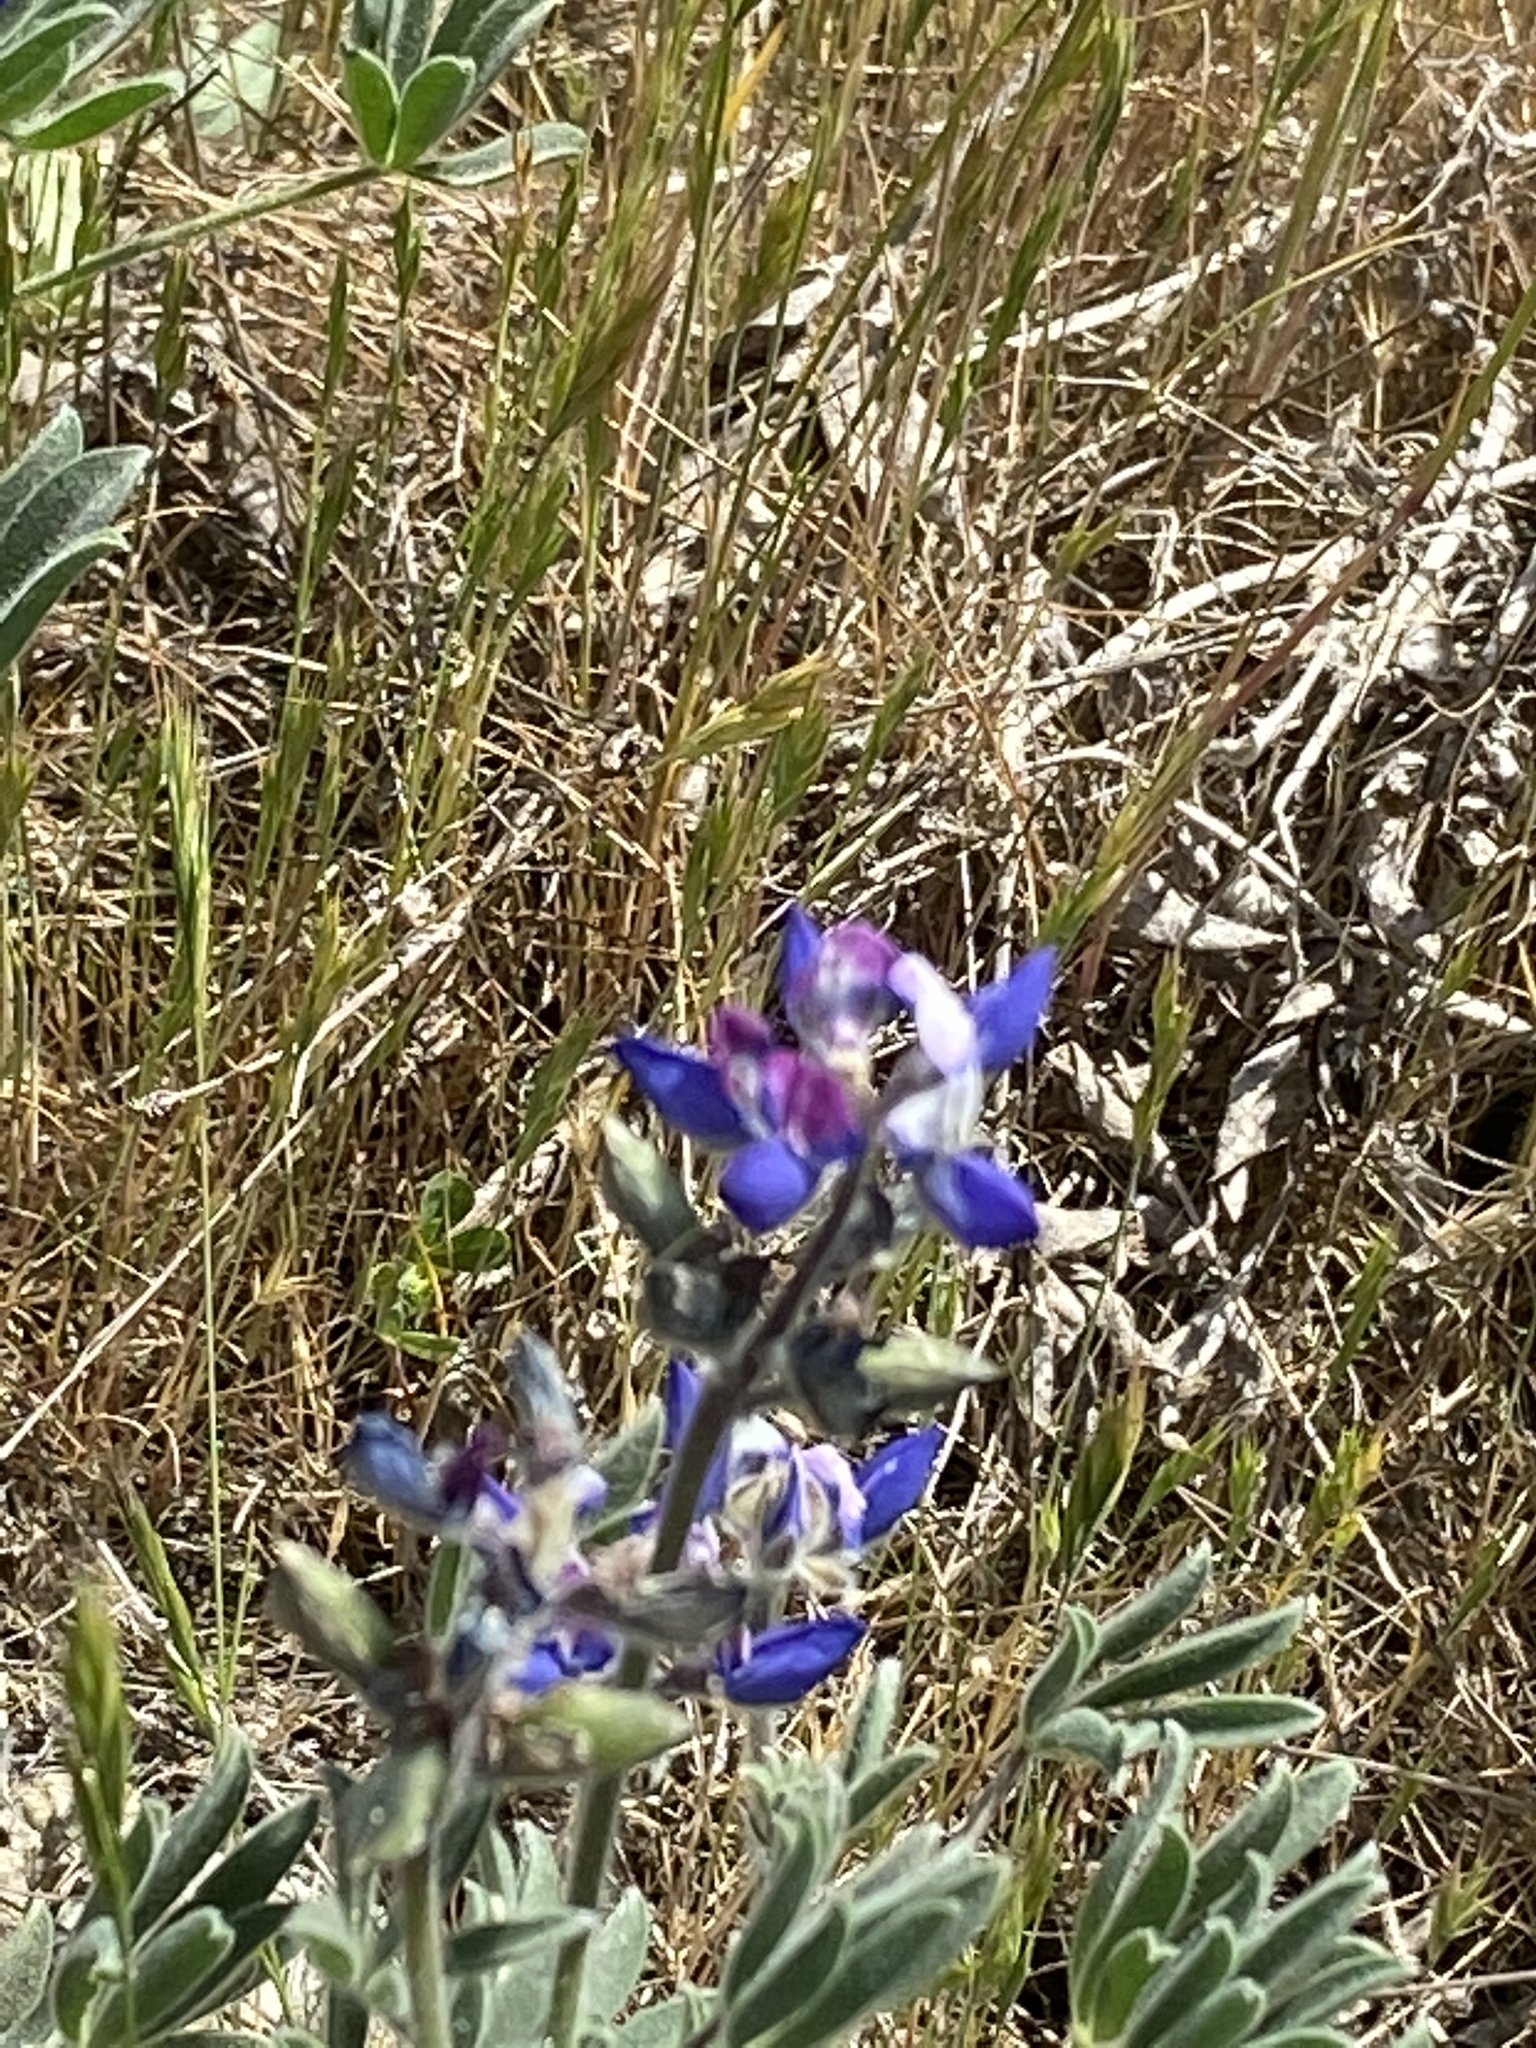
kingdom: Plantae
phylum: Tracheophyta
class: Magnoliopsida
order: Fabales
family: Fabaceae
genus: Lupinus
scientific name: Lupinus bicolor
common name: Miniature lupine
